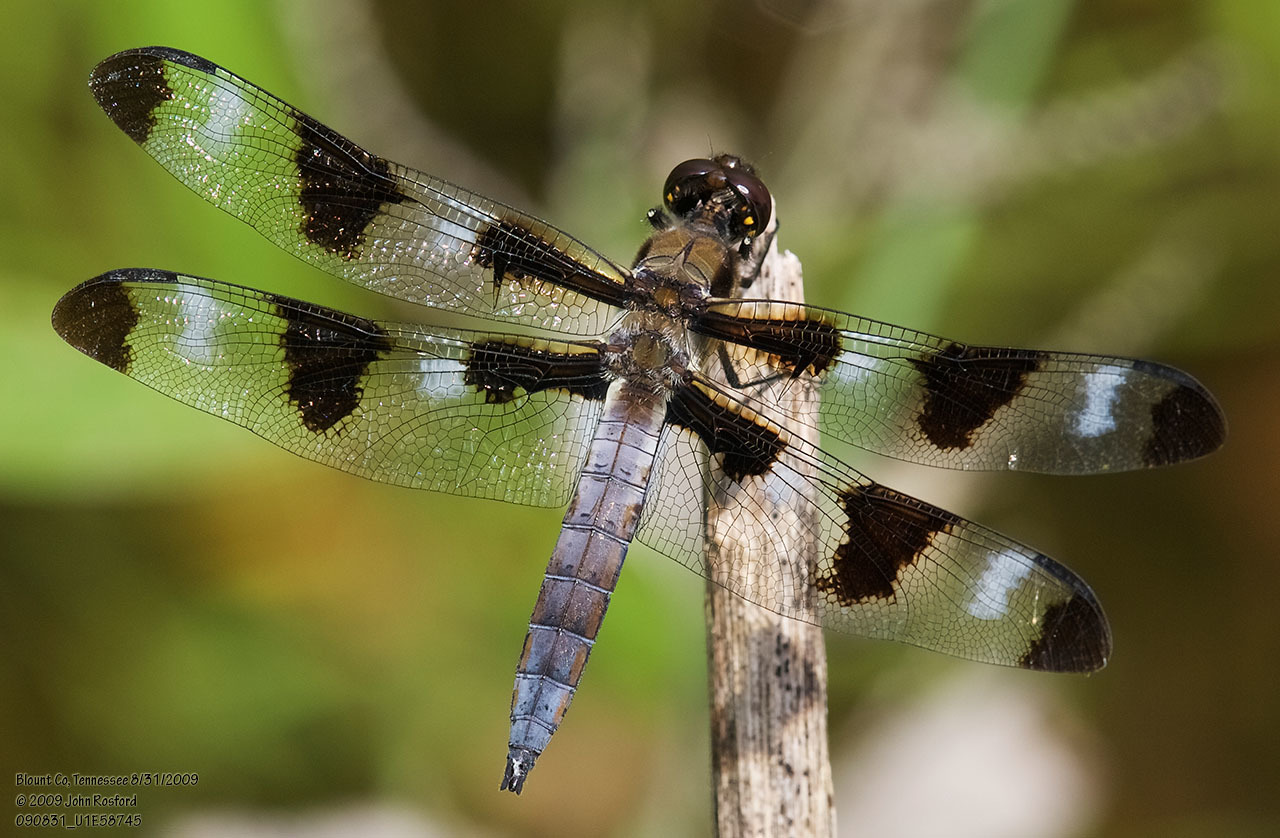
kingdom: Animalia
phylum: Arthropoda
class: Insecta
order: Odonata
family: Libellulidae
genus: Libellula
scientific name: Libellula pulchella
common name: Twelve-spotted skimmer
